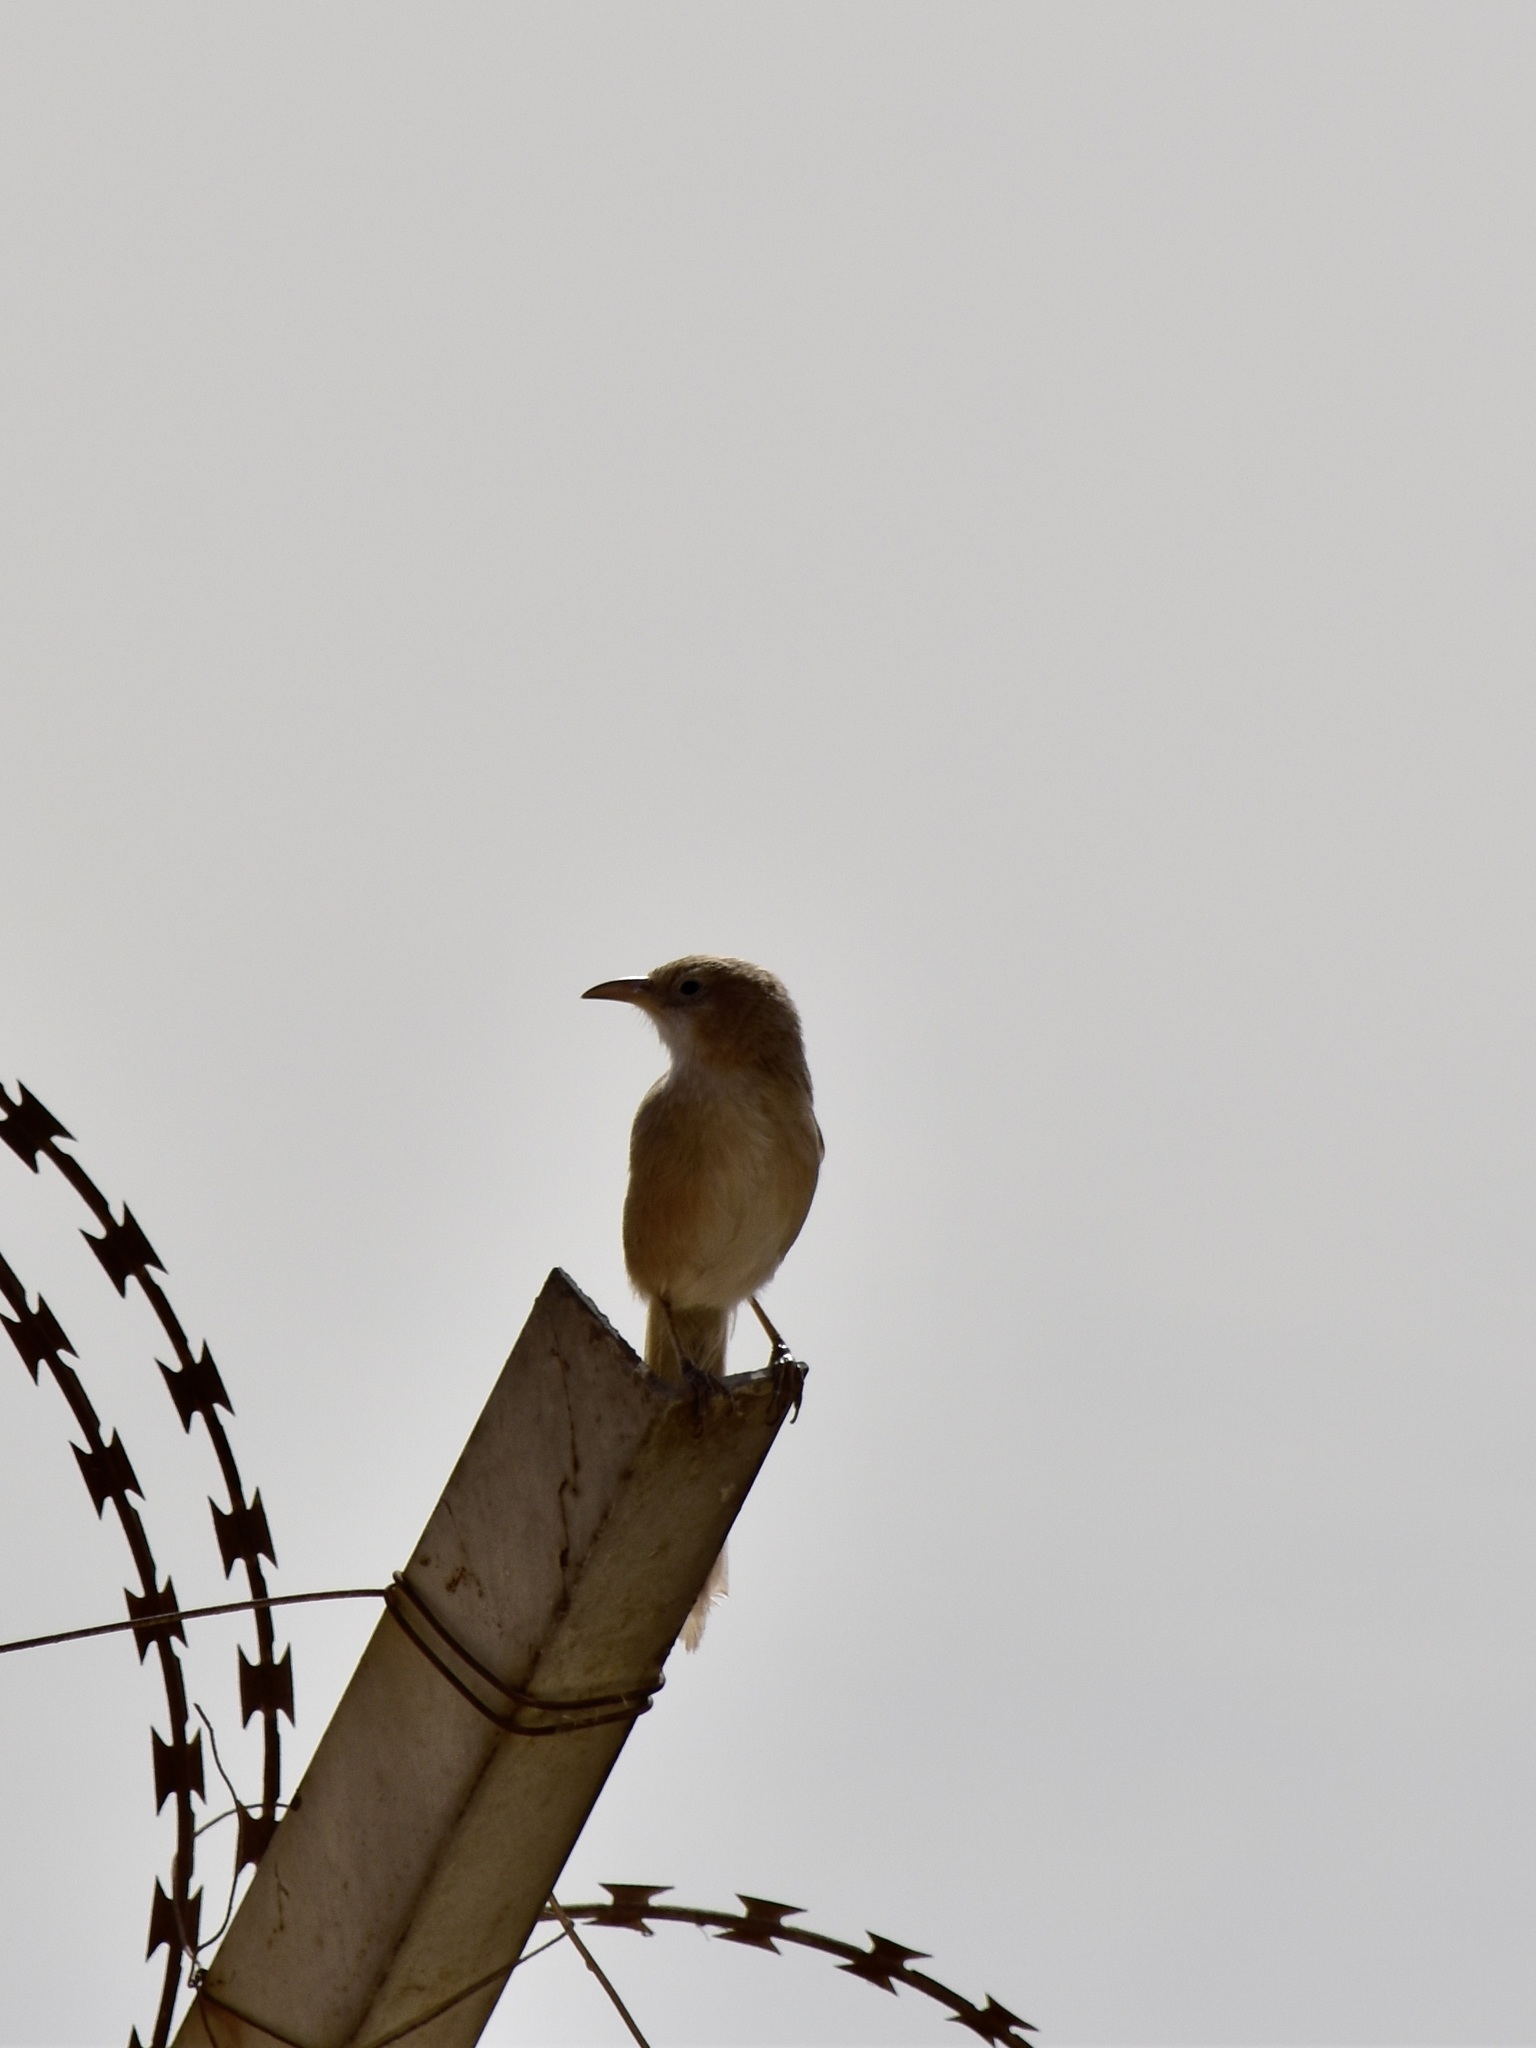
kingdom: Animalia
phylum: Chordata
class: Aves
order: Passeriformes
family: Leiothrichidae
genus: Turdoides
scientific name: Turdoides altirostris
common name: Iraq babbler
